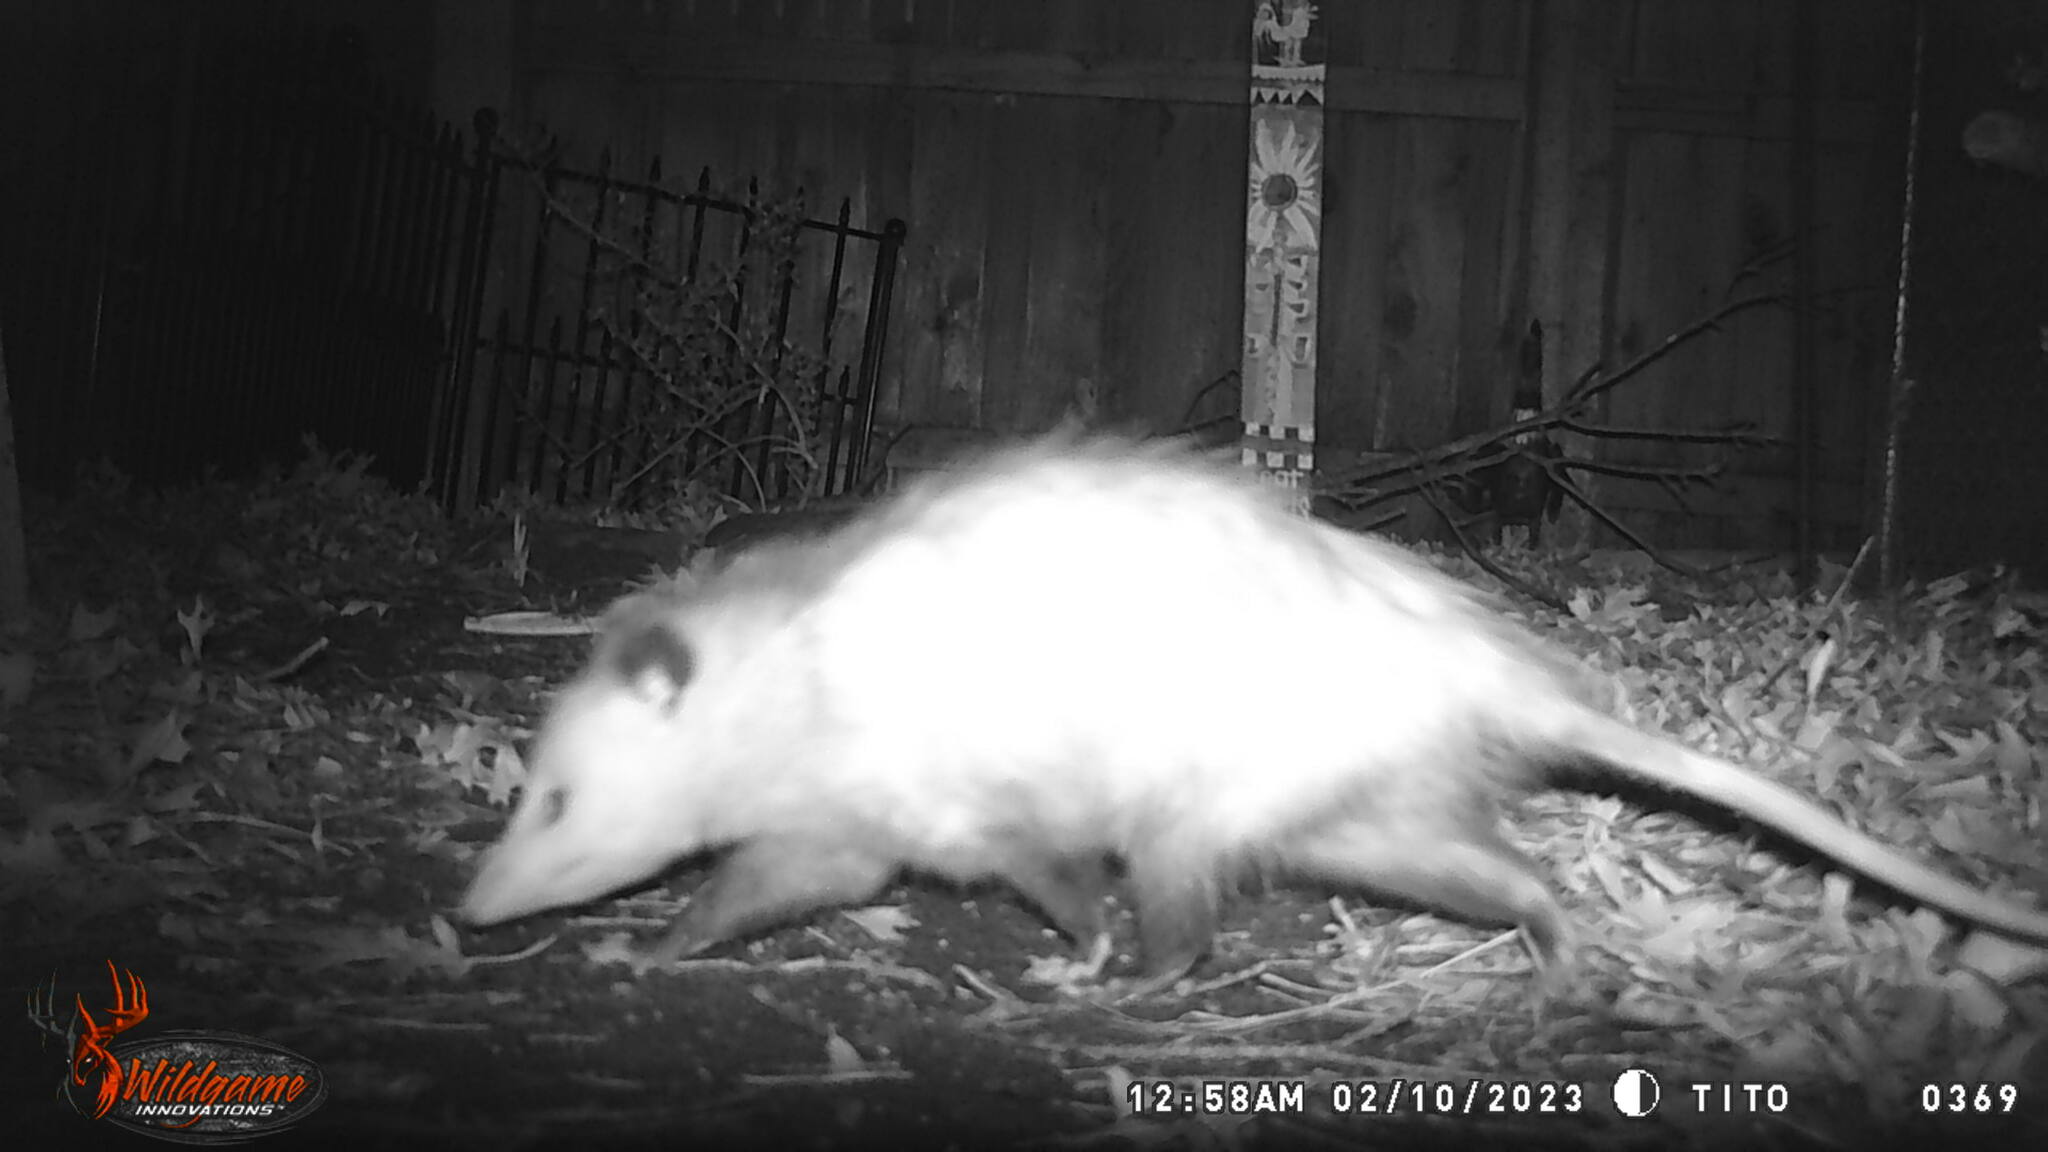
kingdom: Animalia
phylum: Chordata
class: Mammalia
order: Didelphimorphia
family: Didelphidae
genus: Didelphis
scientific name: Didelphis virginiana
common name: Virginia opossum
